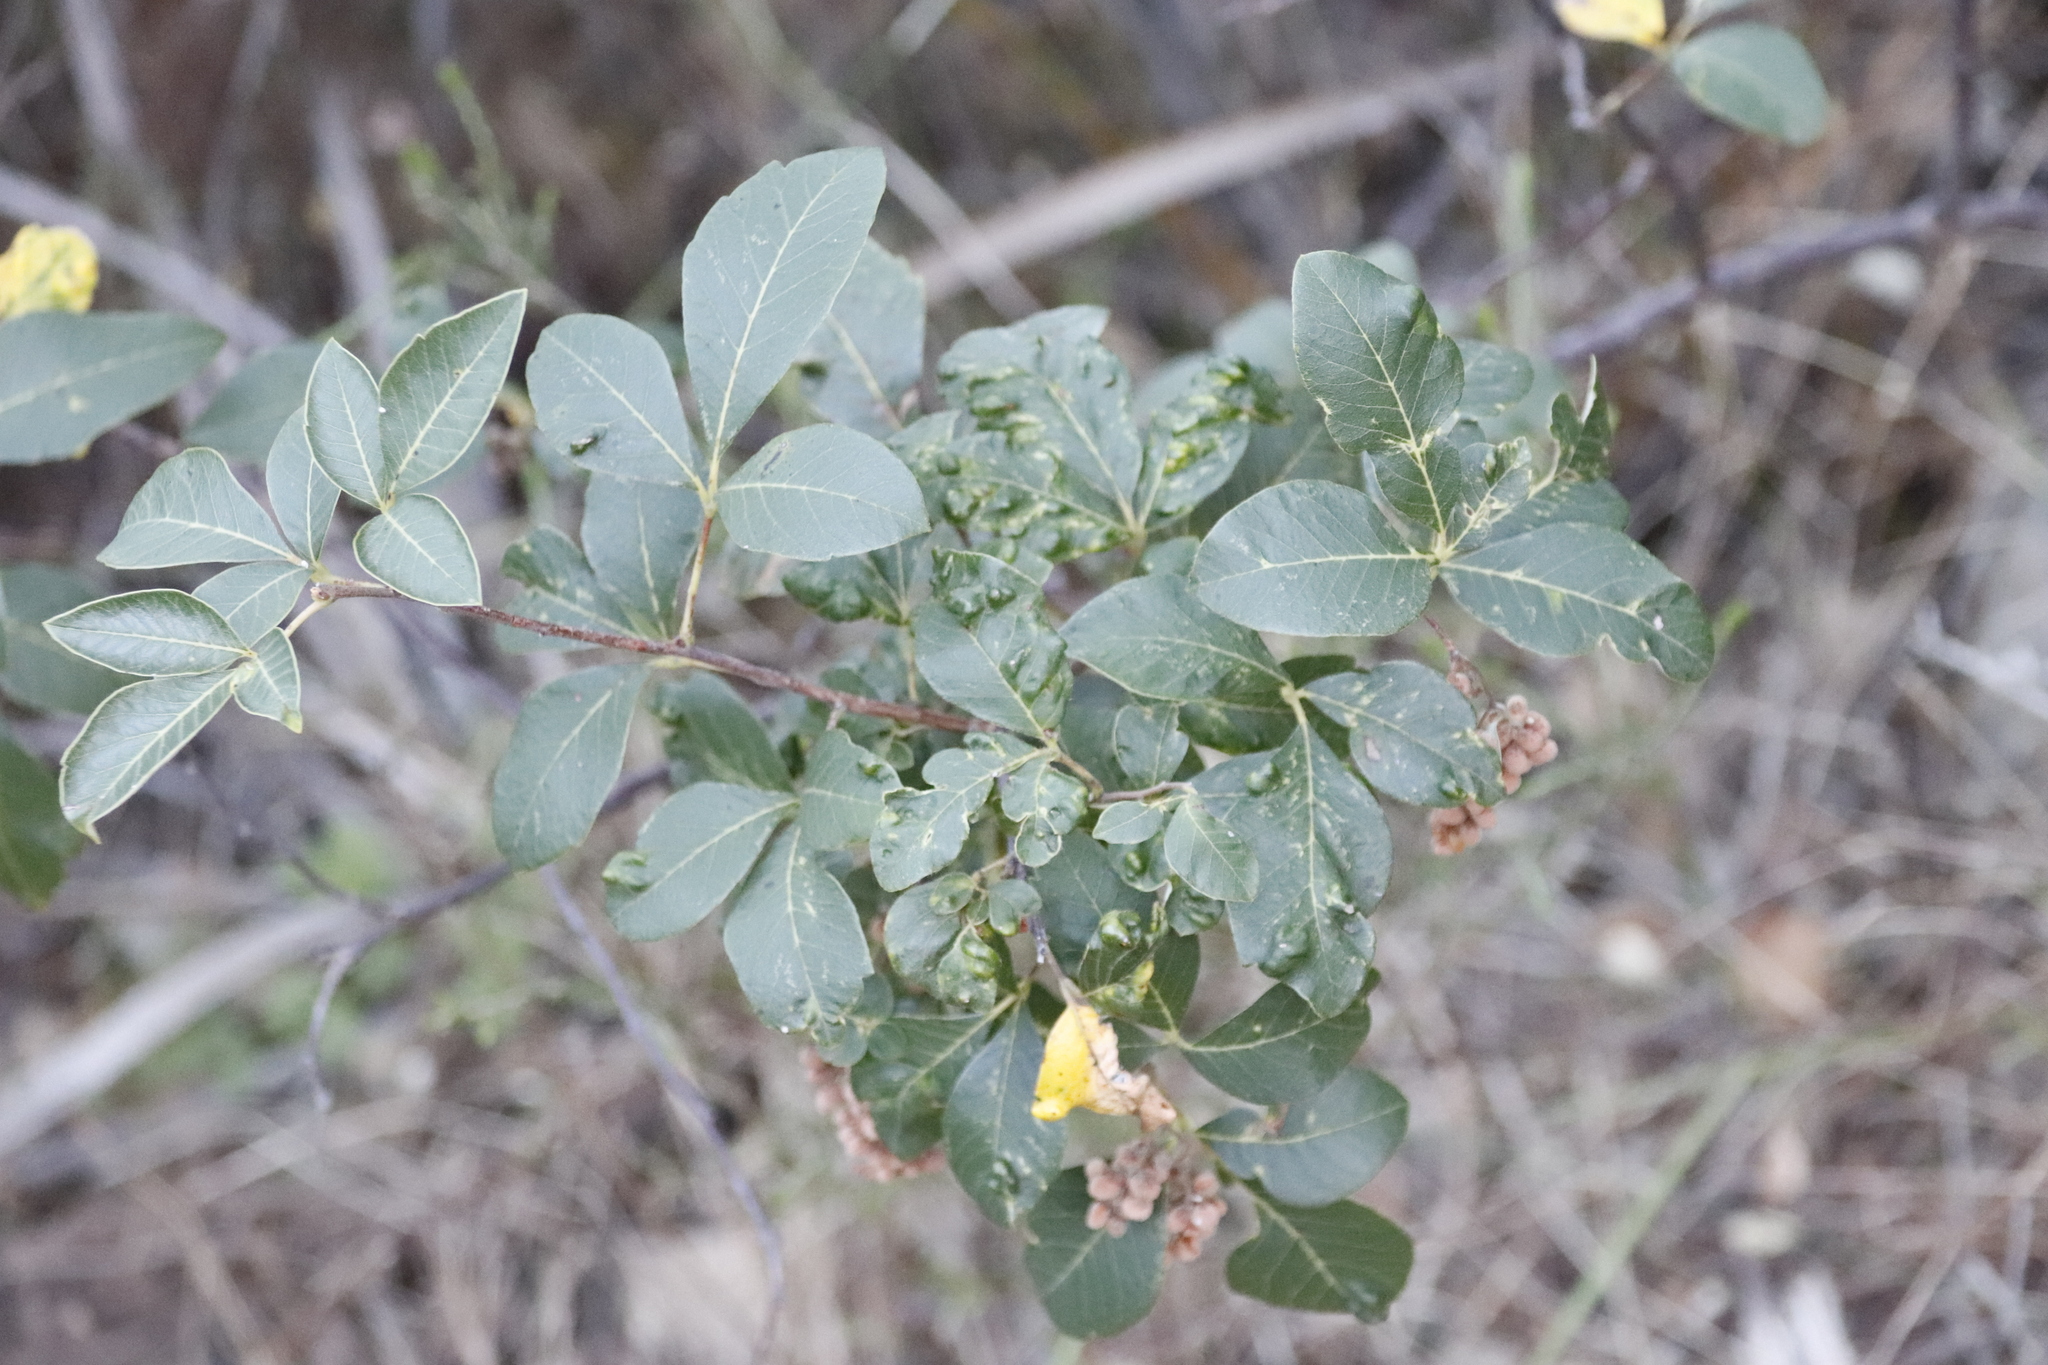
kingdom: Plantae
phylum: Tracheophyta
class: Magnoliopsida
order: Sapindales
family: Anacardiaceae
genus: Searsia
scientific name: Searsia tomentosa
